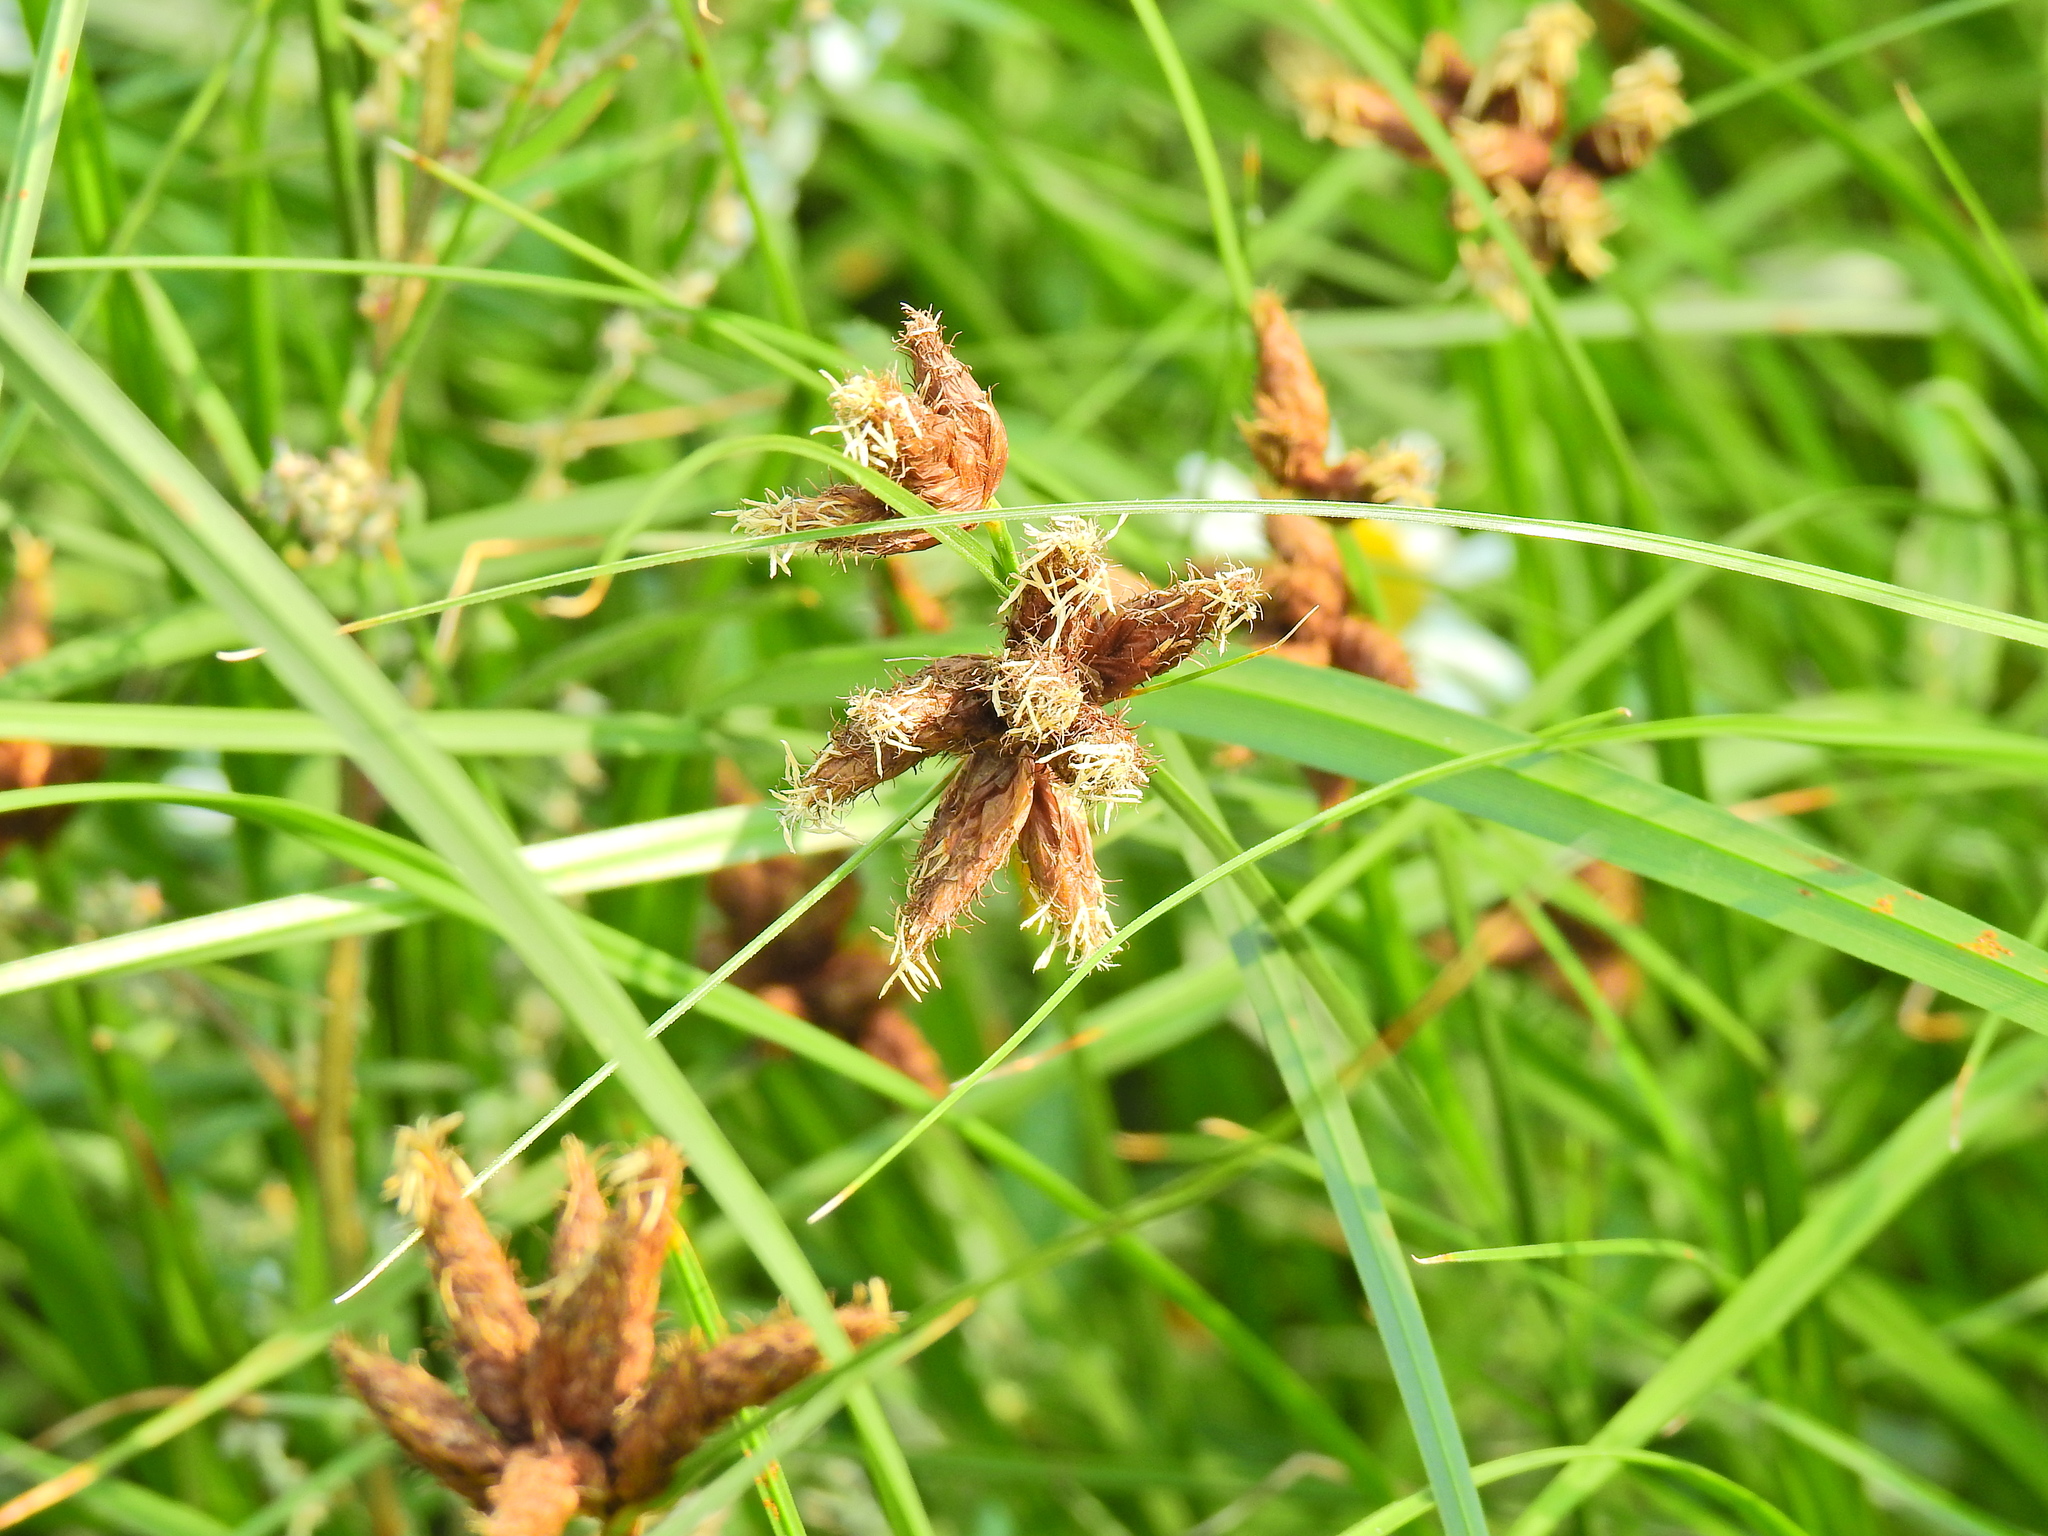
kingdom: Plantae
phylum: Tracheophyta
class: Liliopsida
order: Poales
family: Cyperaceae
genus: Bolboschoenus
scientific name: Bolboschoenus maritimus
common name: Sea club-rush
